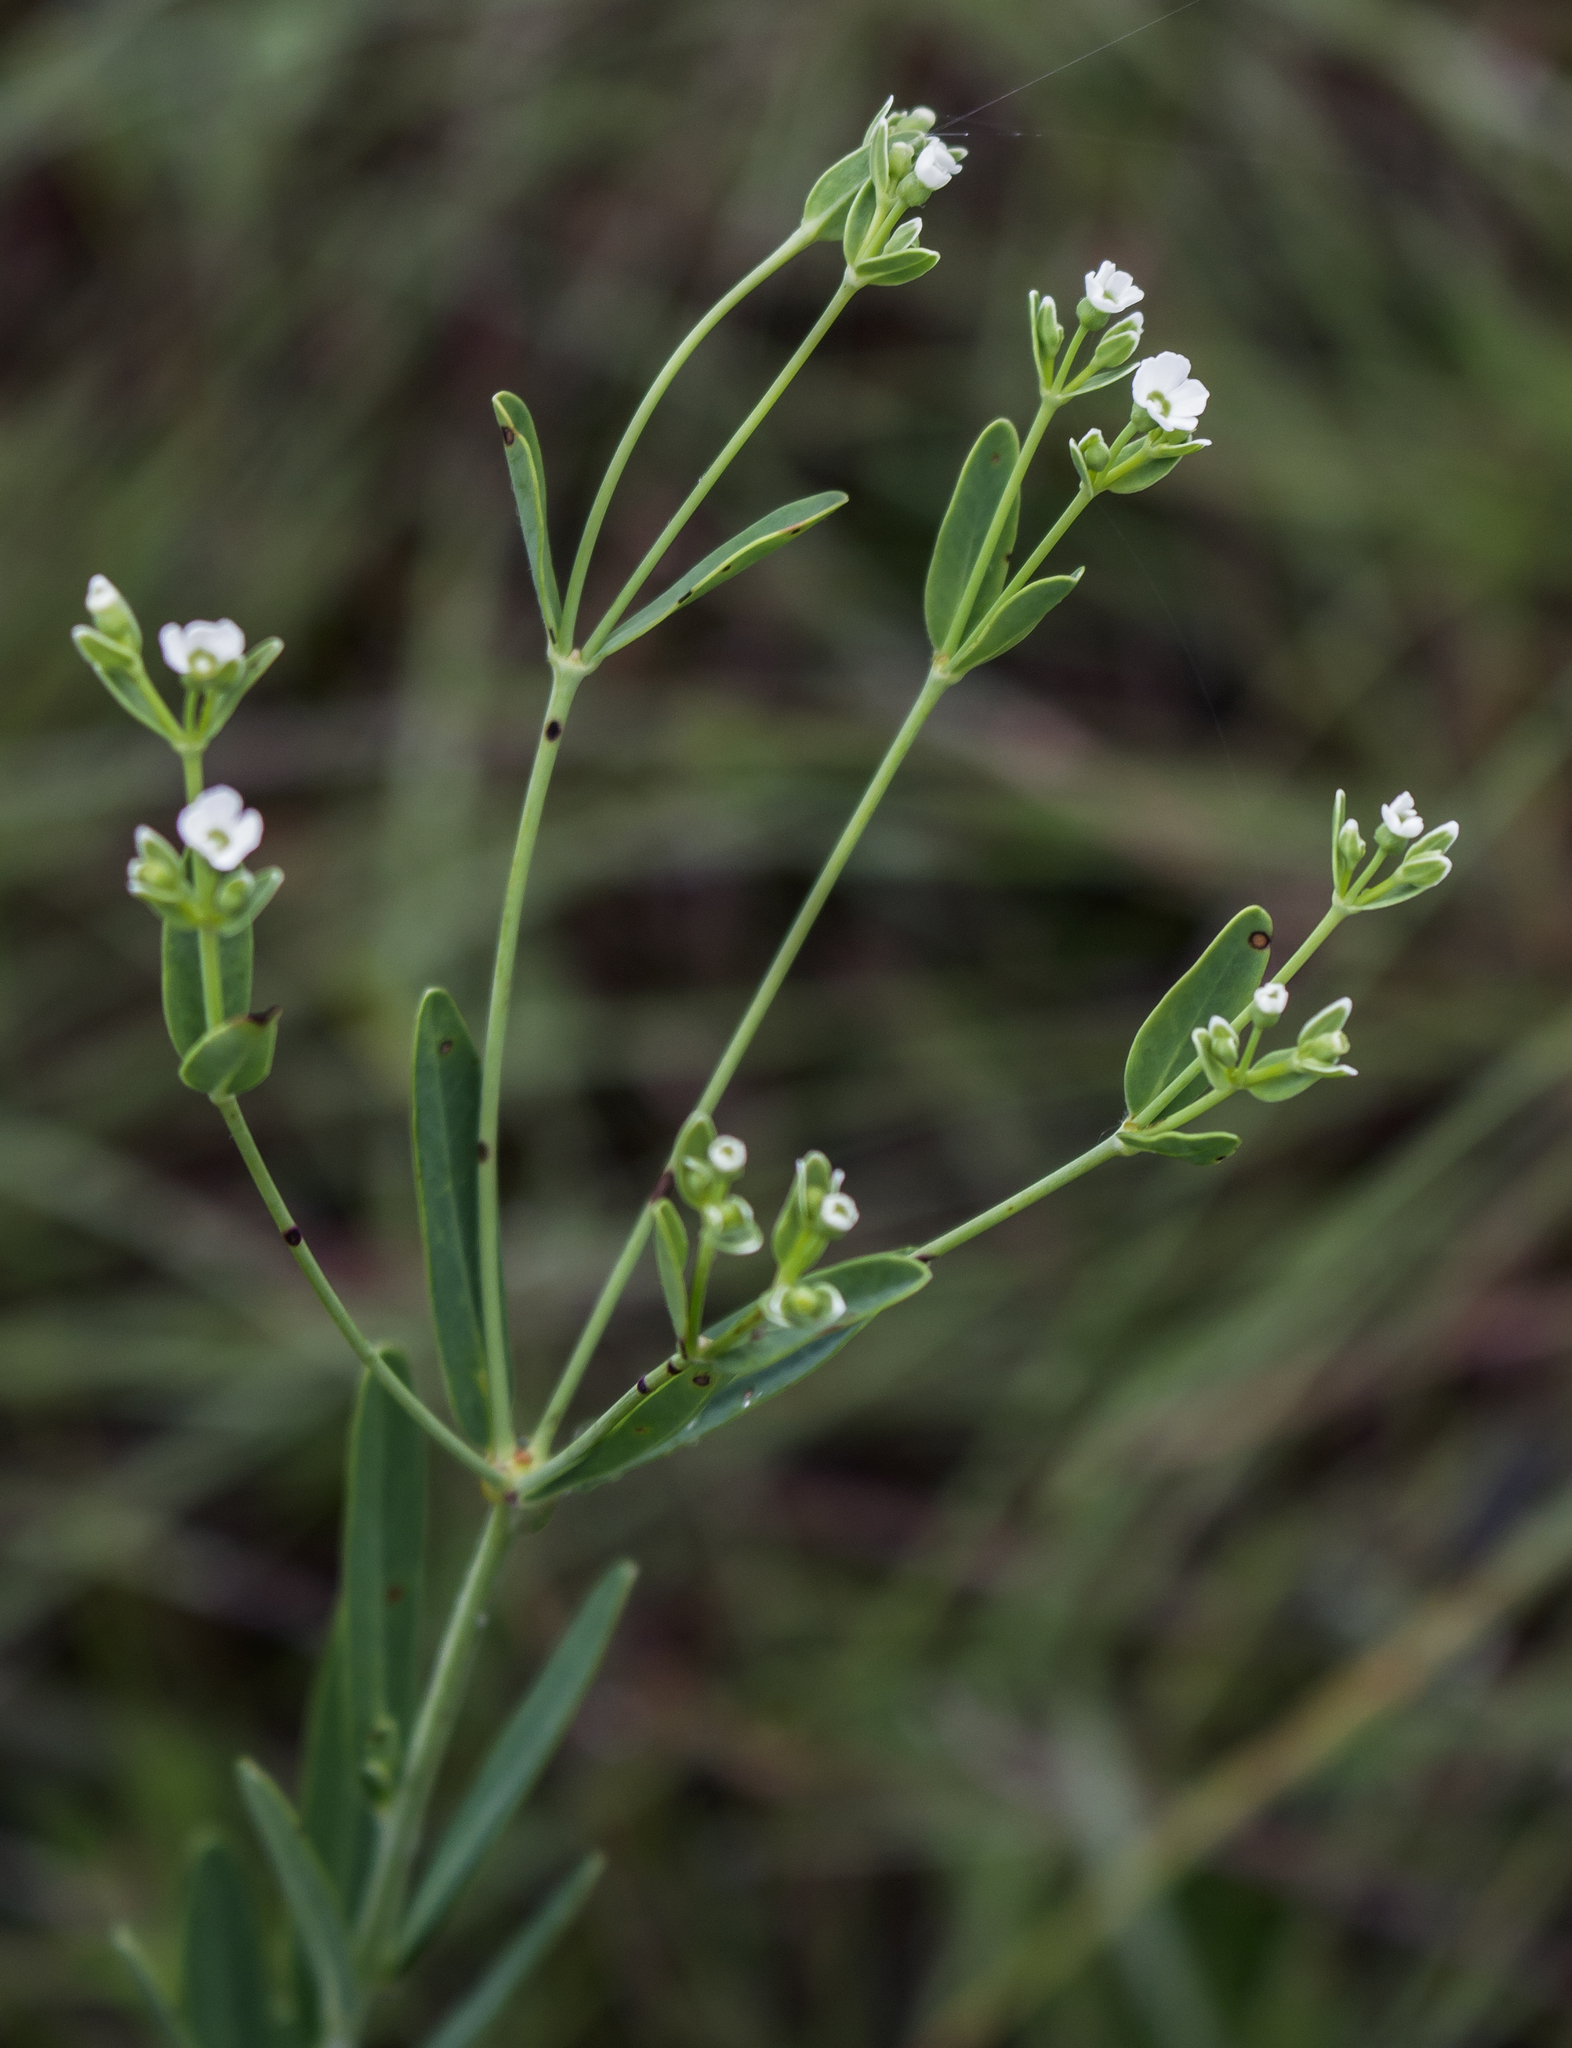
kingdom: Plantae
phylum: Tracheophyta
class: Magnoliopsida
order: Malpighiales
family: Euphorbiaceae
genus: Euphorbia
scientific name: Euphorbia corollata
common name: Flowering spurge
